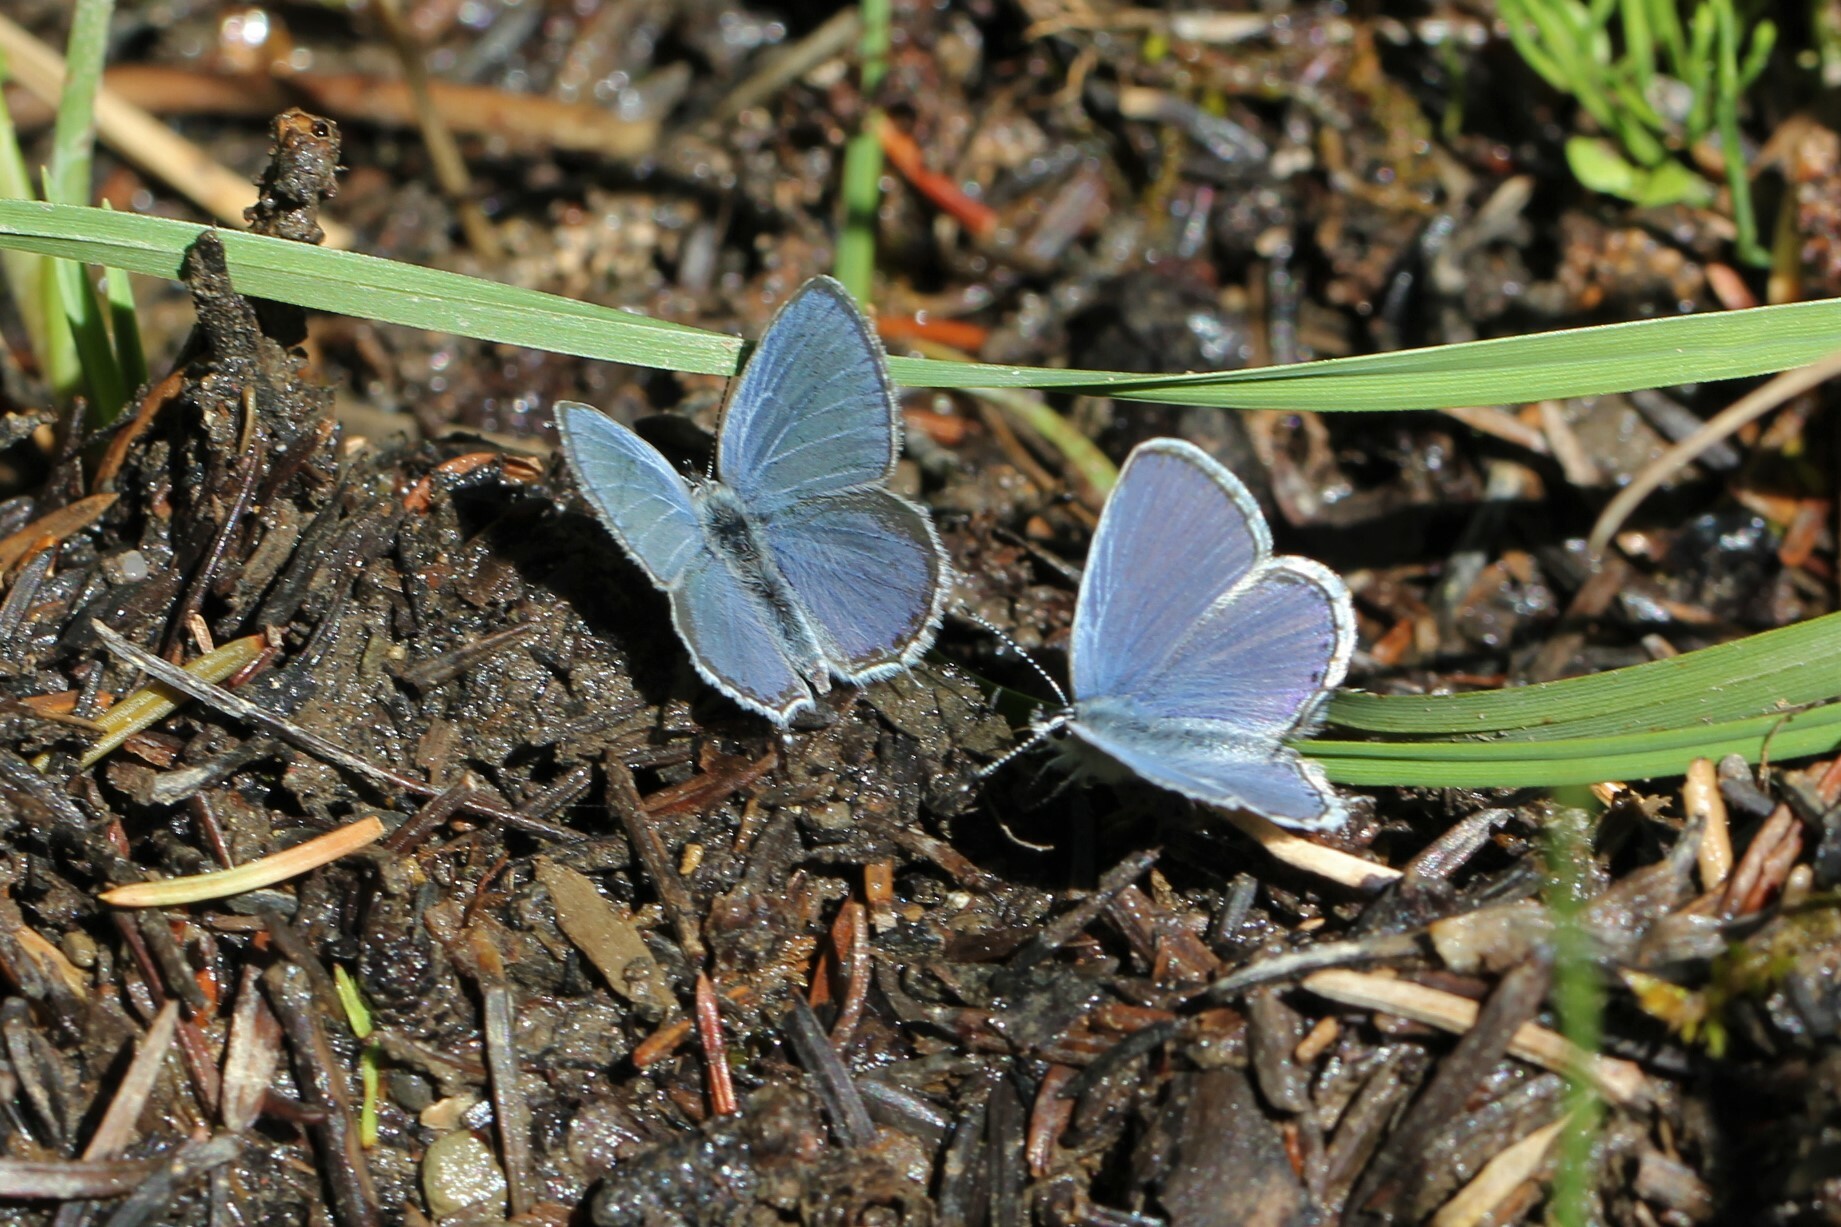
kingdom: Animalia
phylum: Arthropoda
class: Insecta
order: Lepidoptera
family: Lycaenidae
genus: Elkalyce
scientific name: Elkalyce amyntula
